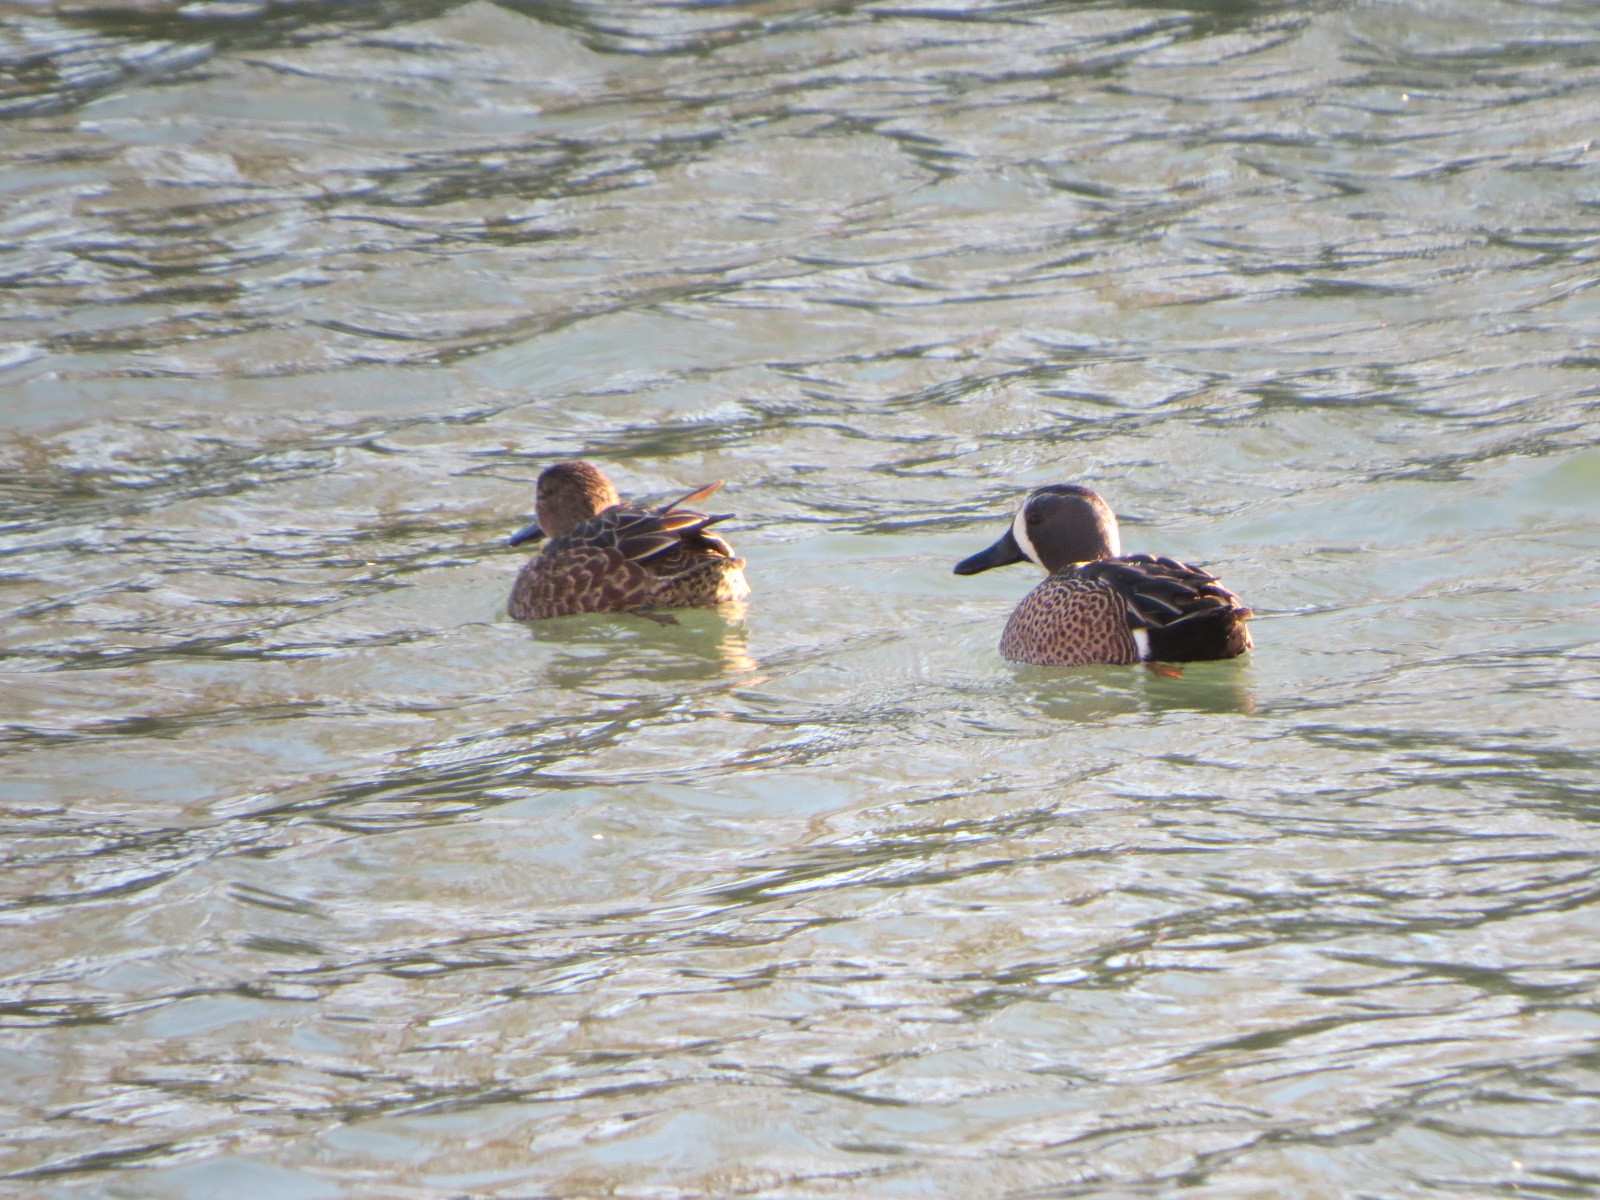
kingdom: Animalia
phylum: Chordata
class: Aves
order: Anseriformes
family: Anatidae
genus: Spatula
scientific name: Spatula discors
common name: Blue-winged teal
